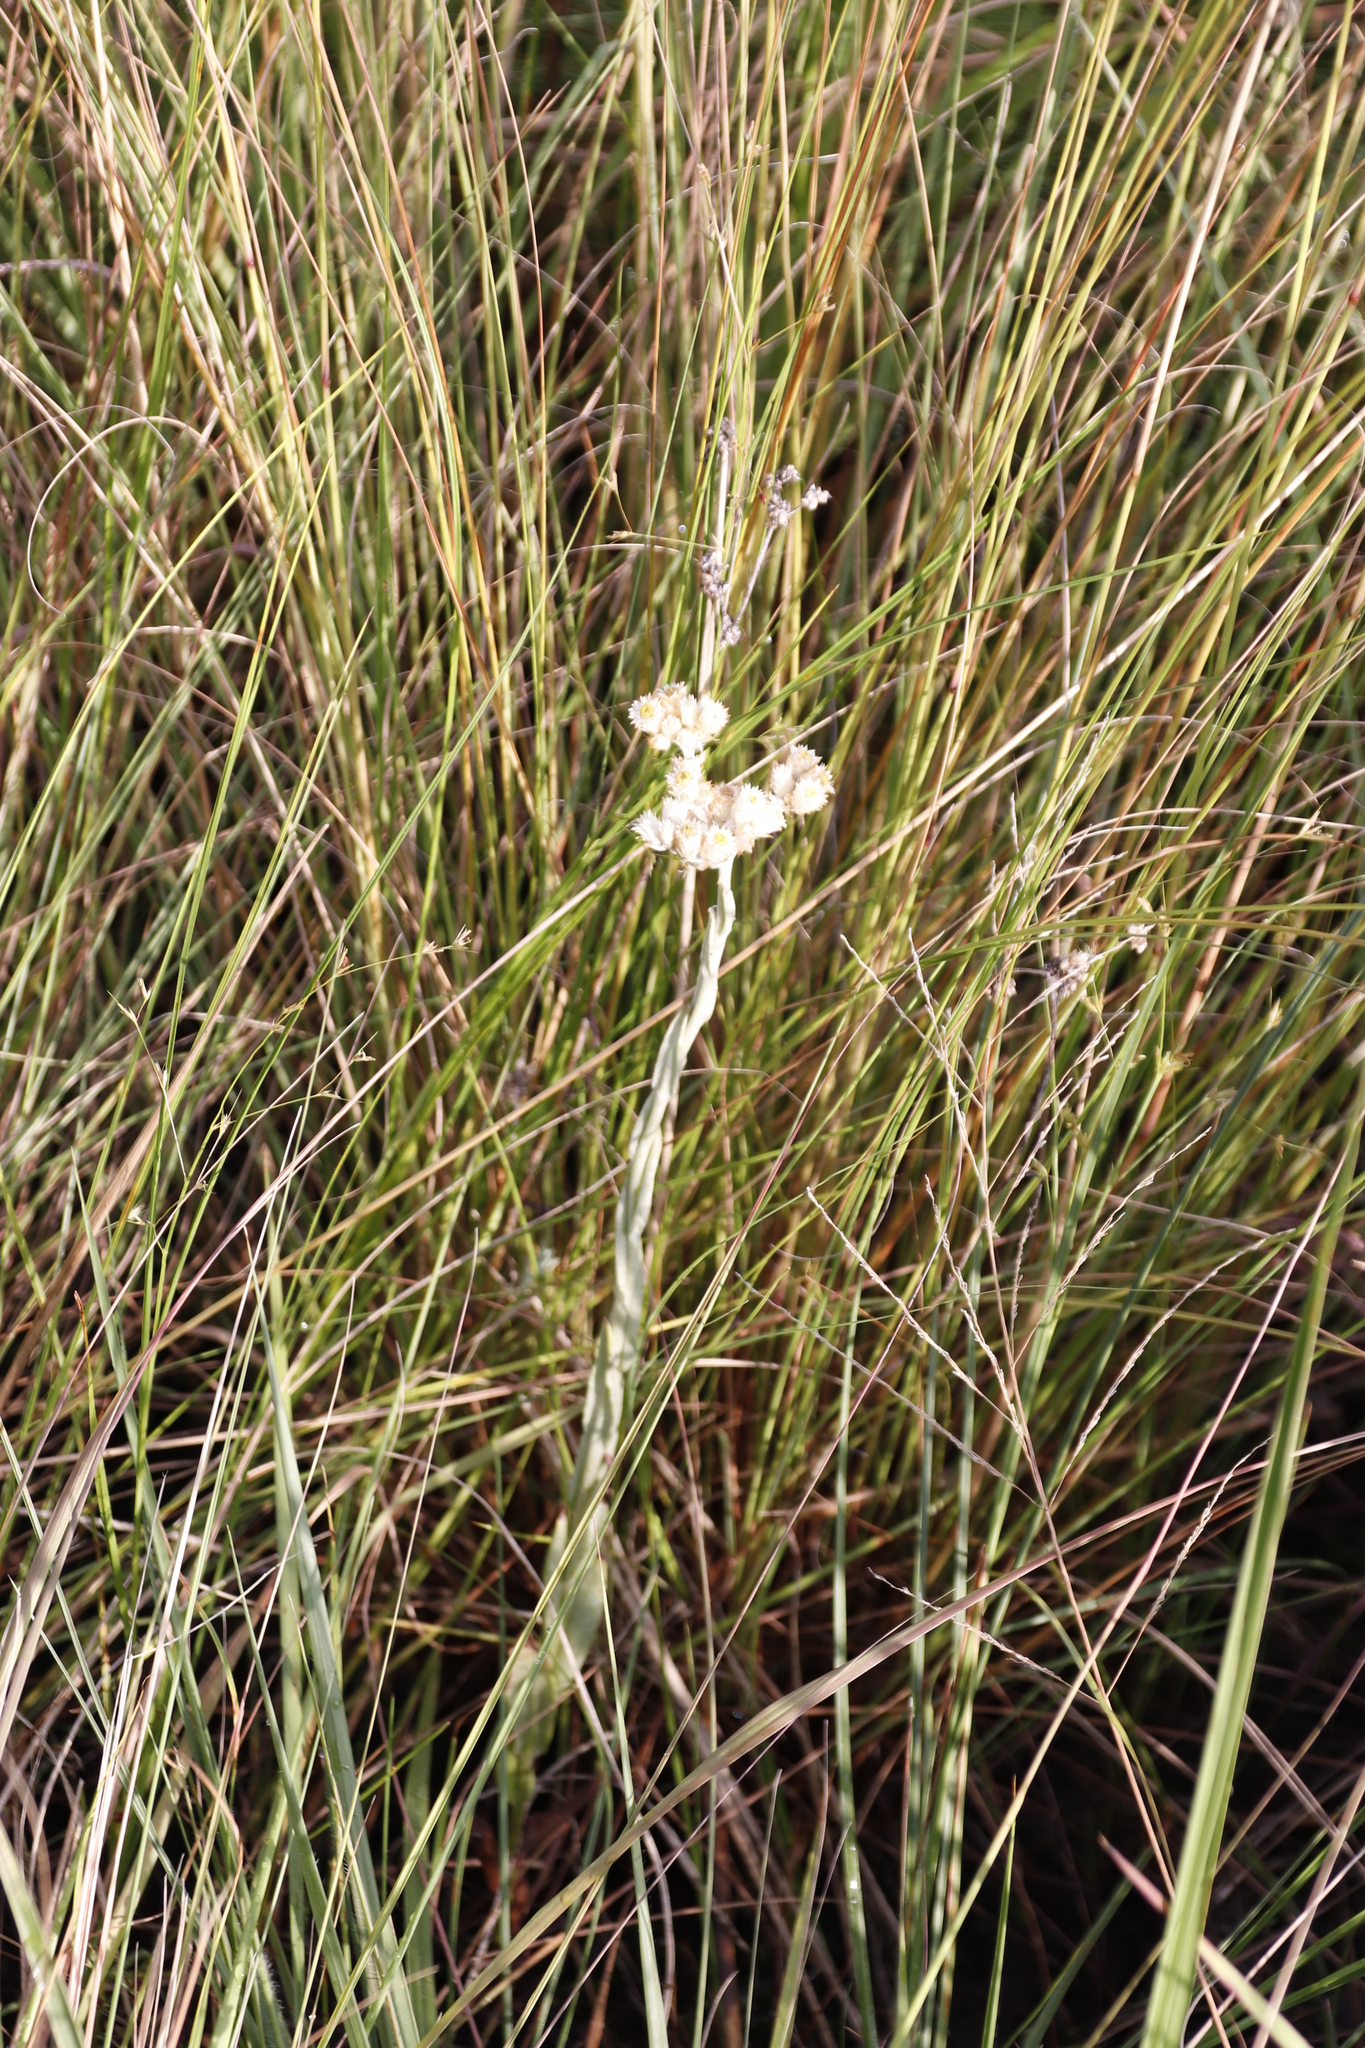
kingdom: Plantae
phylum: Tracheophyta
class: Magnoliopsida
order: Asterales
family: Asteraceae
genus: Helichrysum
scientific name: Helichrysum appendiculatum
